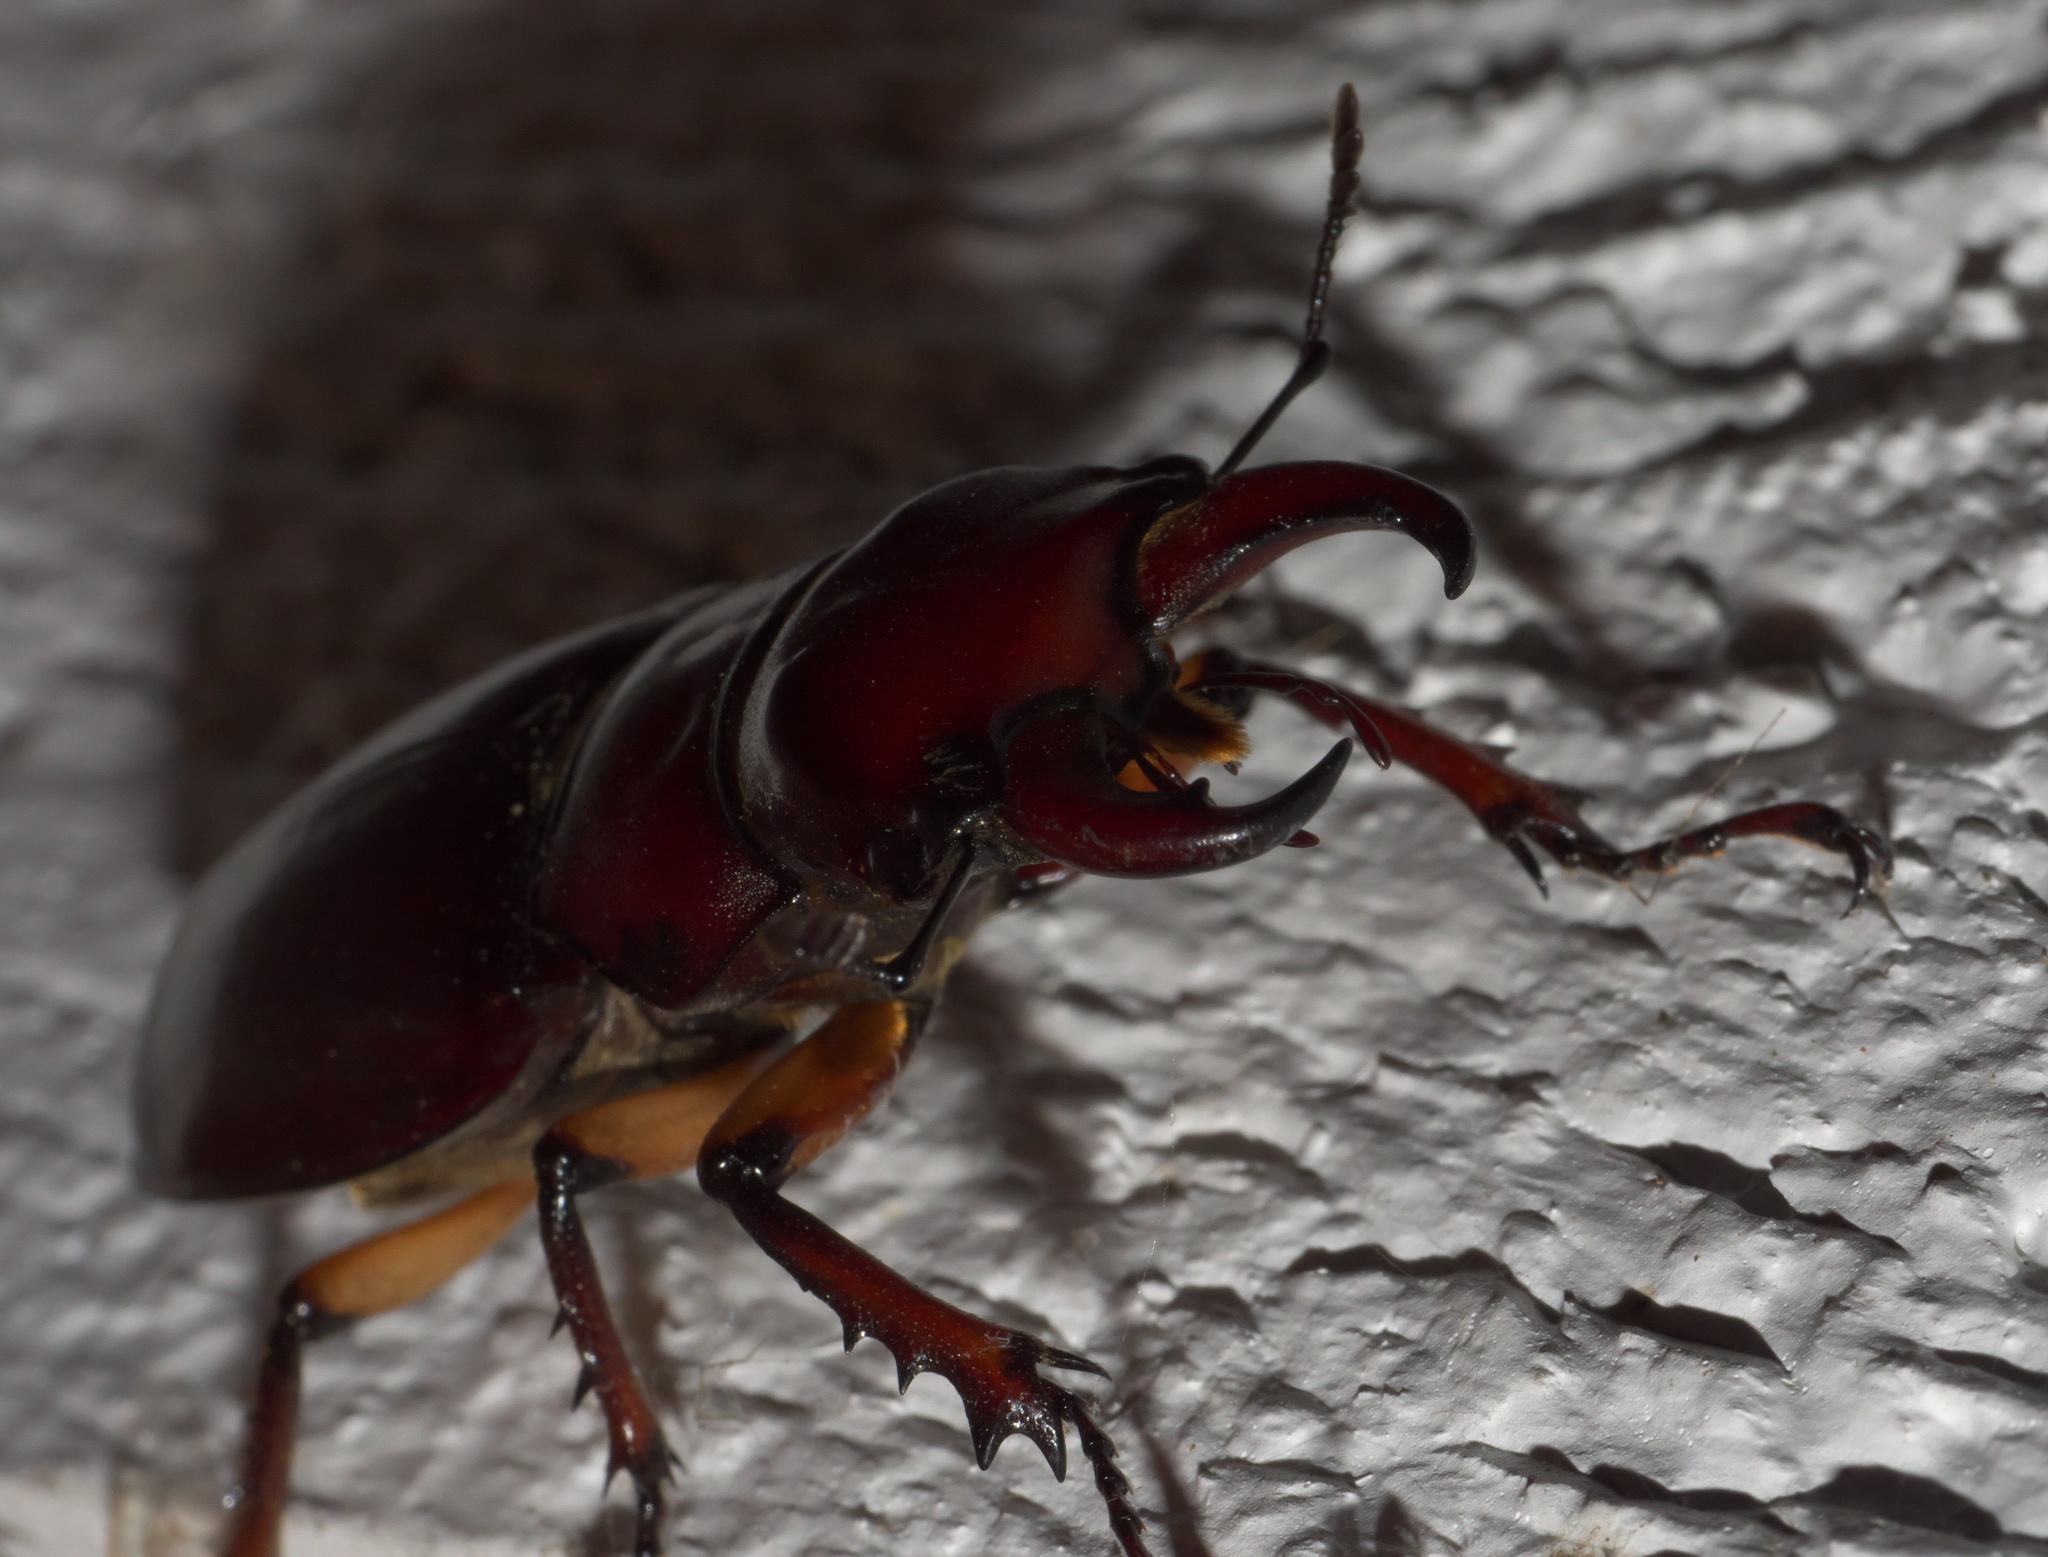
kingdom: Animalia
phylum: Arthropoda
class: Insecta
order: Coleoptera
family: Lucanidae
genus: Lucanus
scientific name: Lucanus capreolus
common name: Stag beetle
